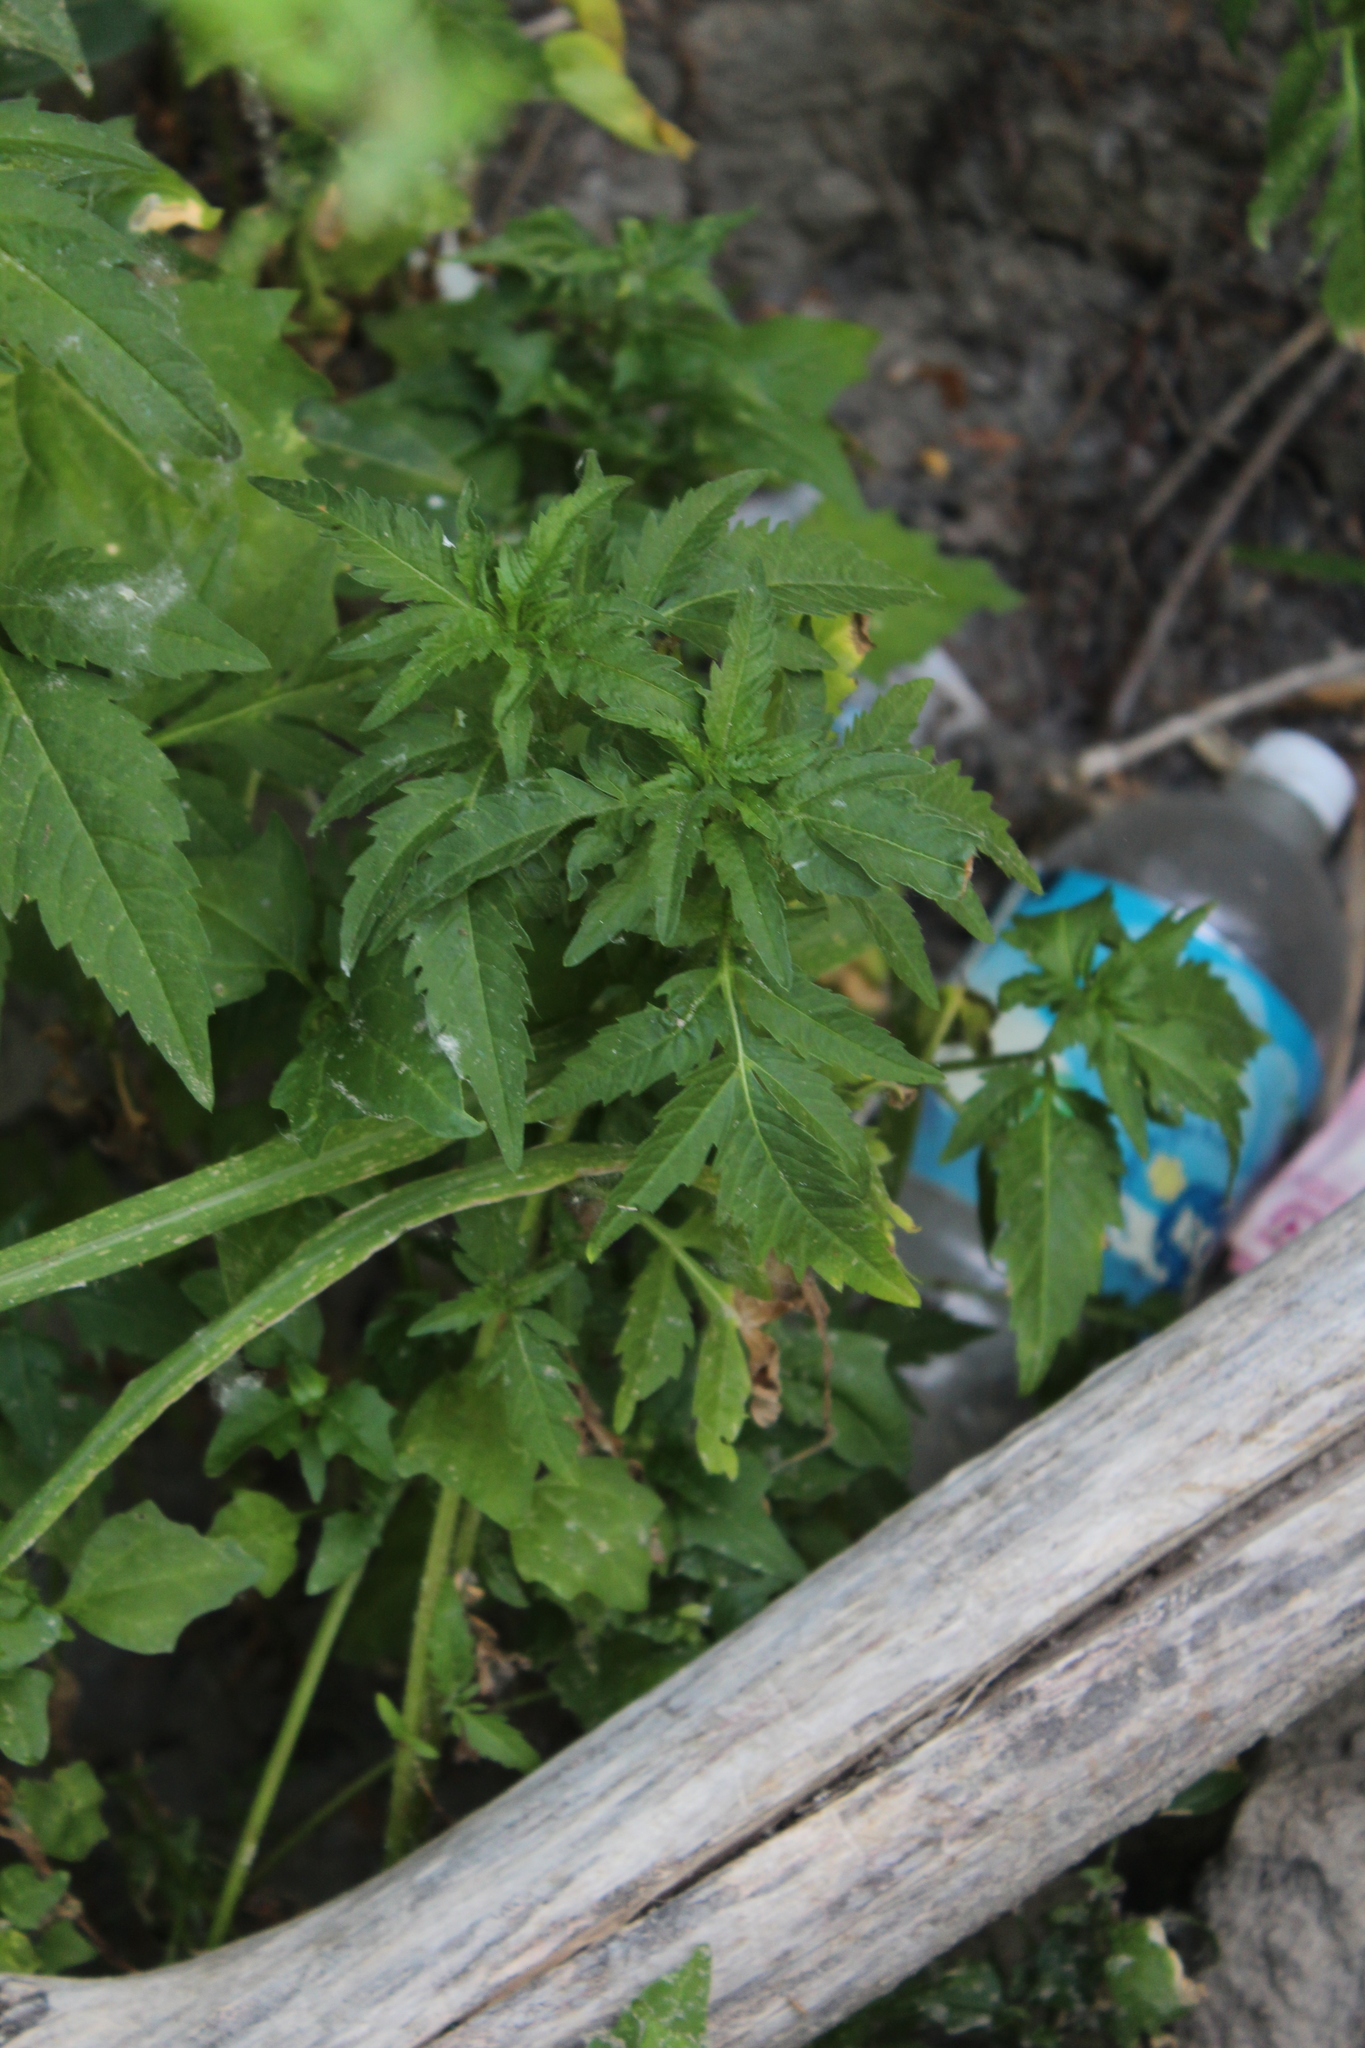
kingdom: Plantae
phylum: Tracheophyta
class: Magnoliopsida
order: Asterales
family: Asteraceae
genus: Bidens
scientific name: Bidens tripartita
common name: Trifid bur-marigold
